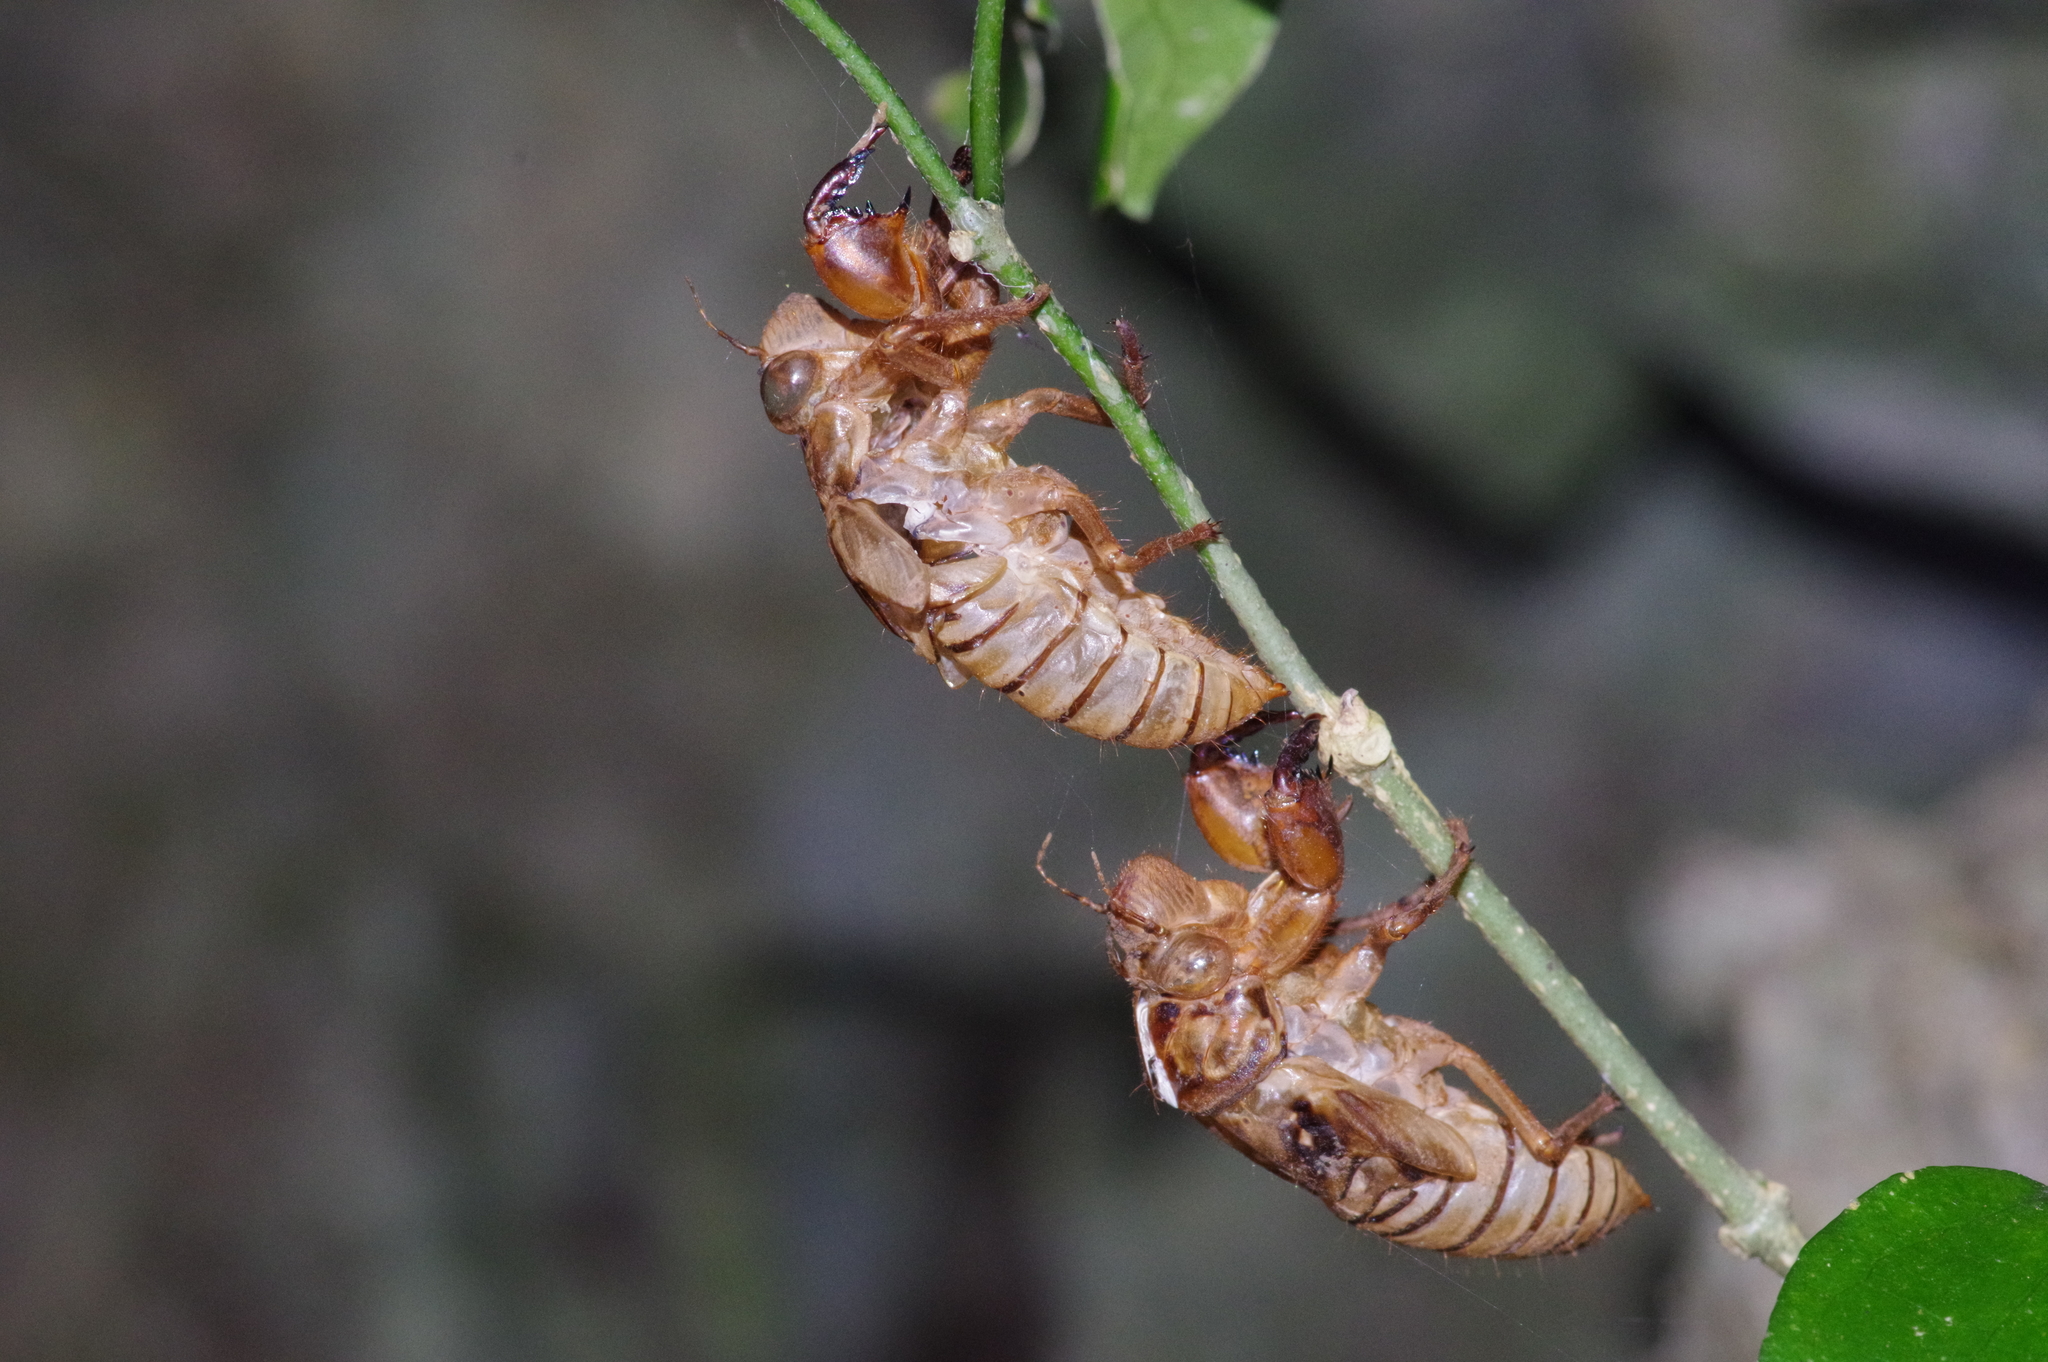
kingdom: Animalia
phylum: Arthropoda
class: Insecta
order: Hemiptera
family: Cicadidae
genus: Meimuna
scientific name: Meimuna oshimensis
